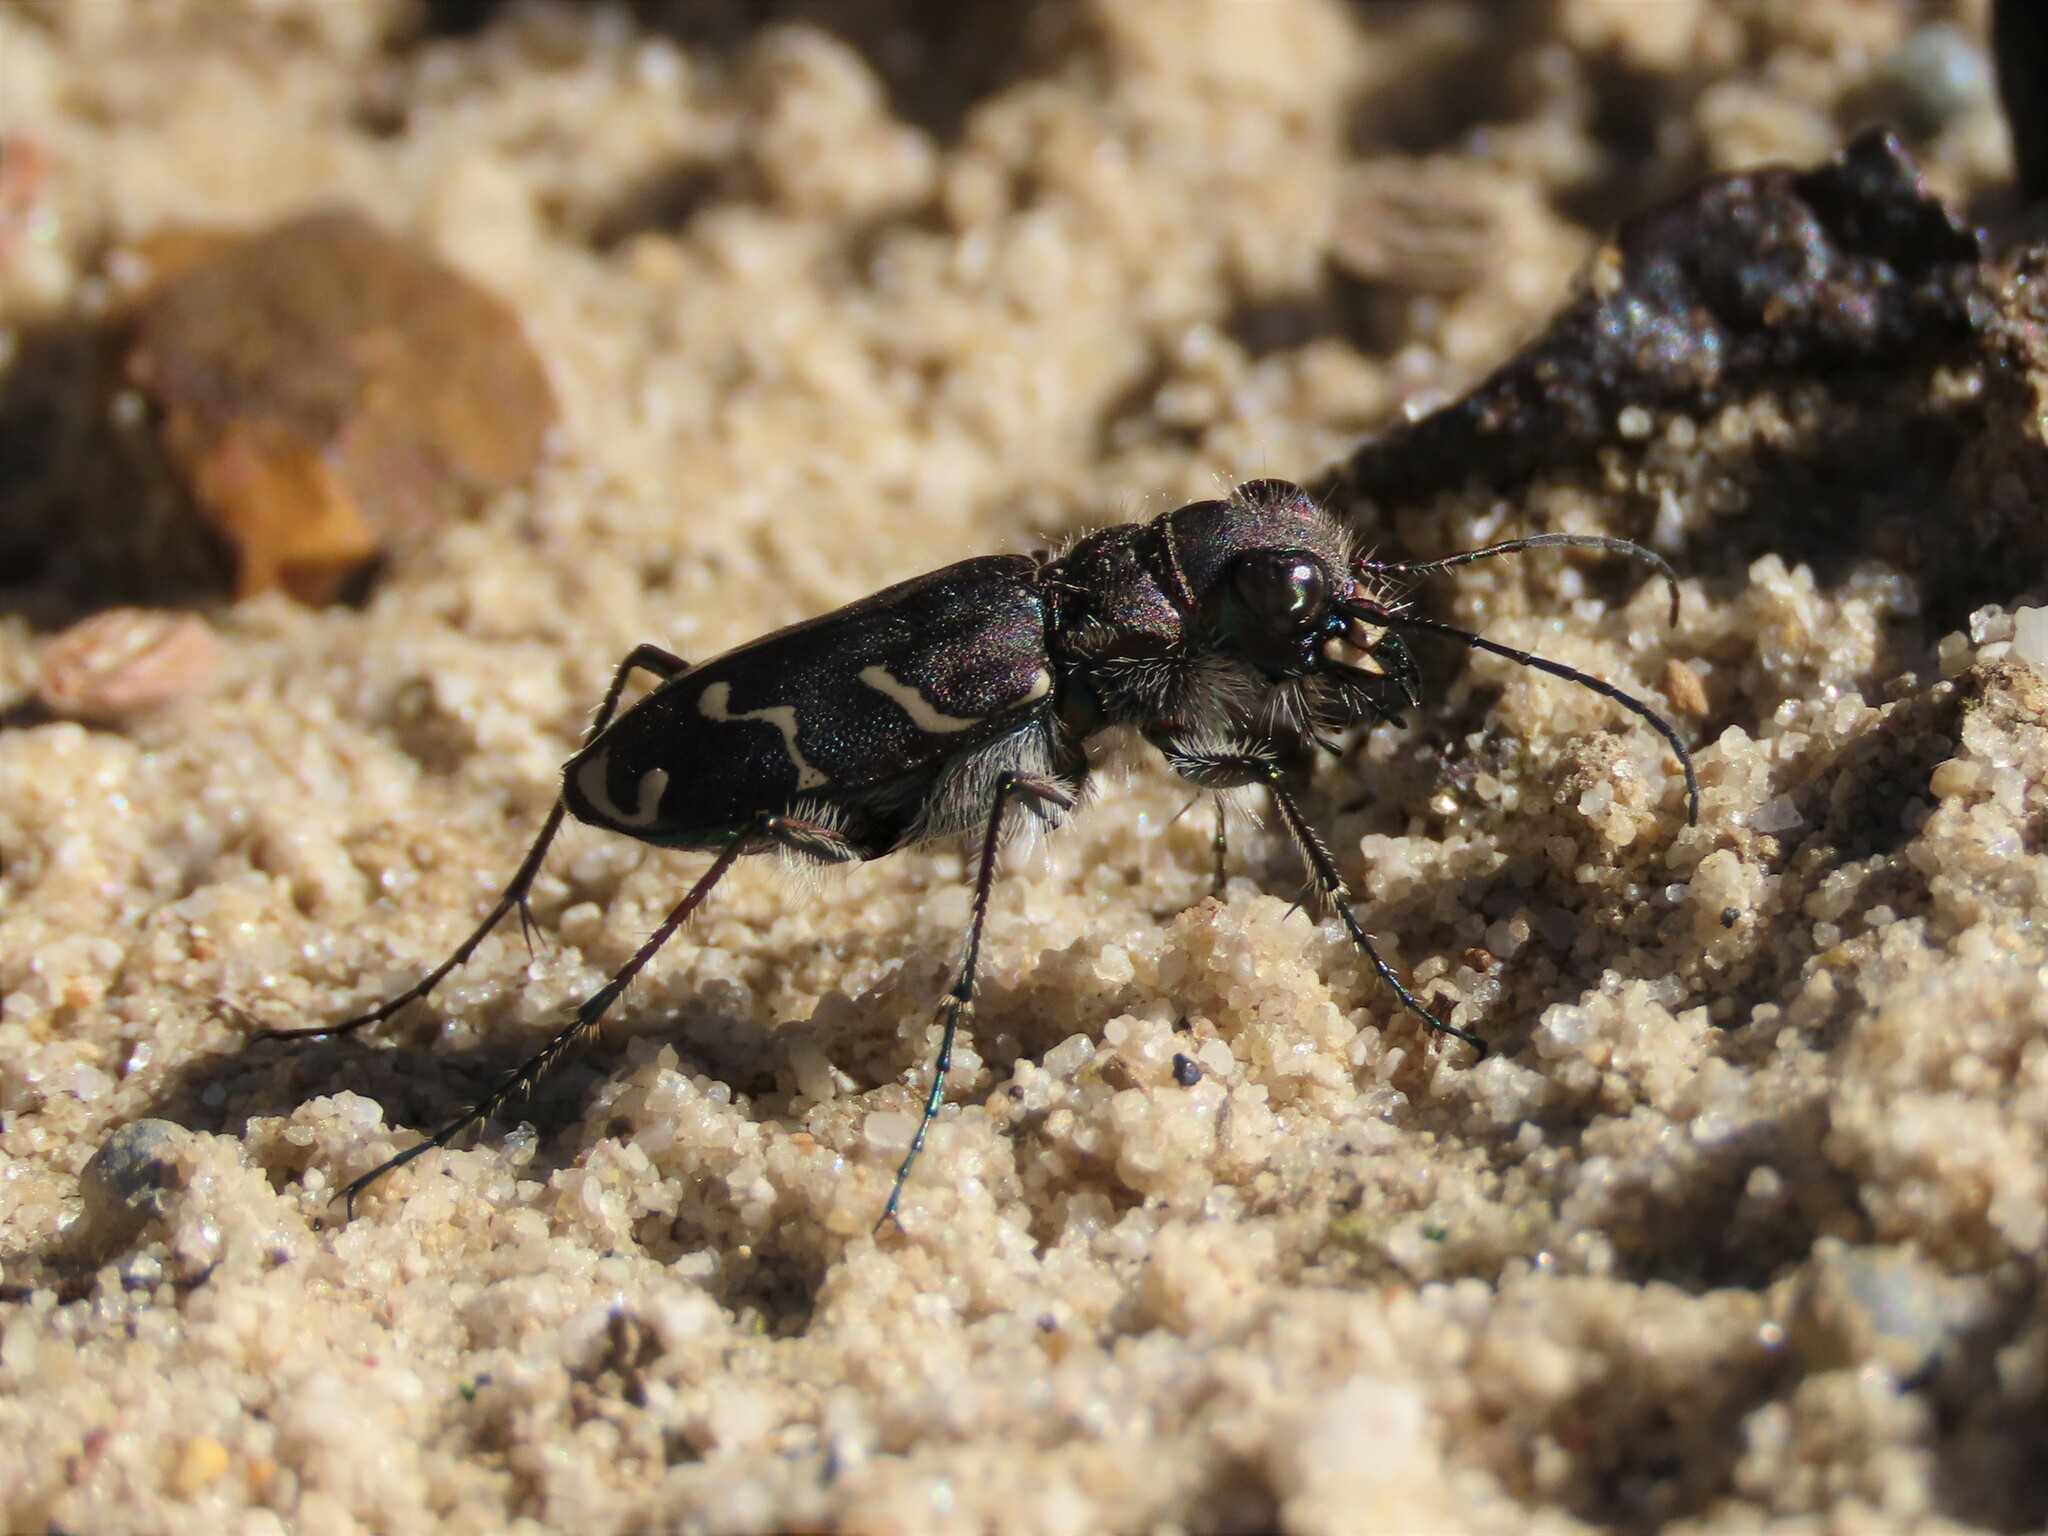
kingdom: Animalia
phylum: Arthropoda
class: Insecta
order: Coleoptera
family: Carabidae
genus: Cicindela
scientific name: Cicindela tranquebarica
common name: Oblique-lined tiger beetle
